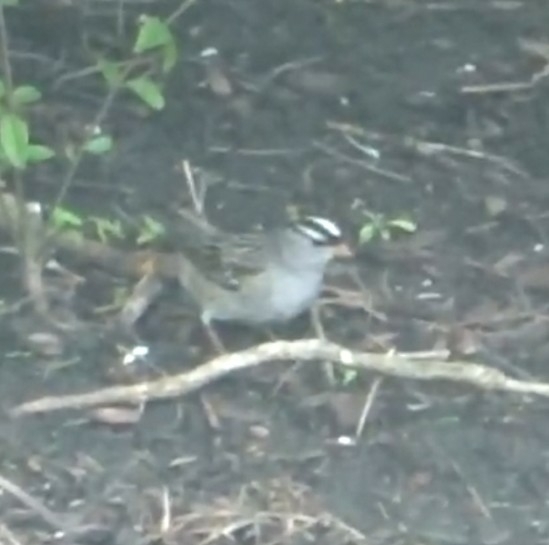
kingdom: Animalia
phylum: Chordata
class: Aves
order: Passeriformes
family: Passerellidae
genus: Zonotrichia
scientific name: Zonotrichia leucophrys
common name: White-crowned sparrow
